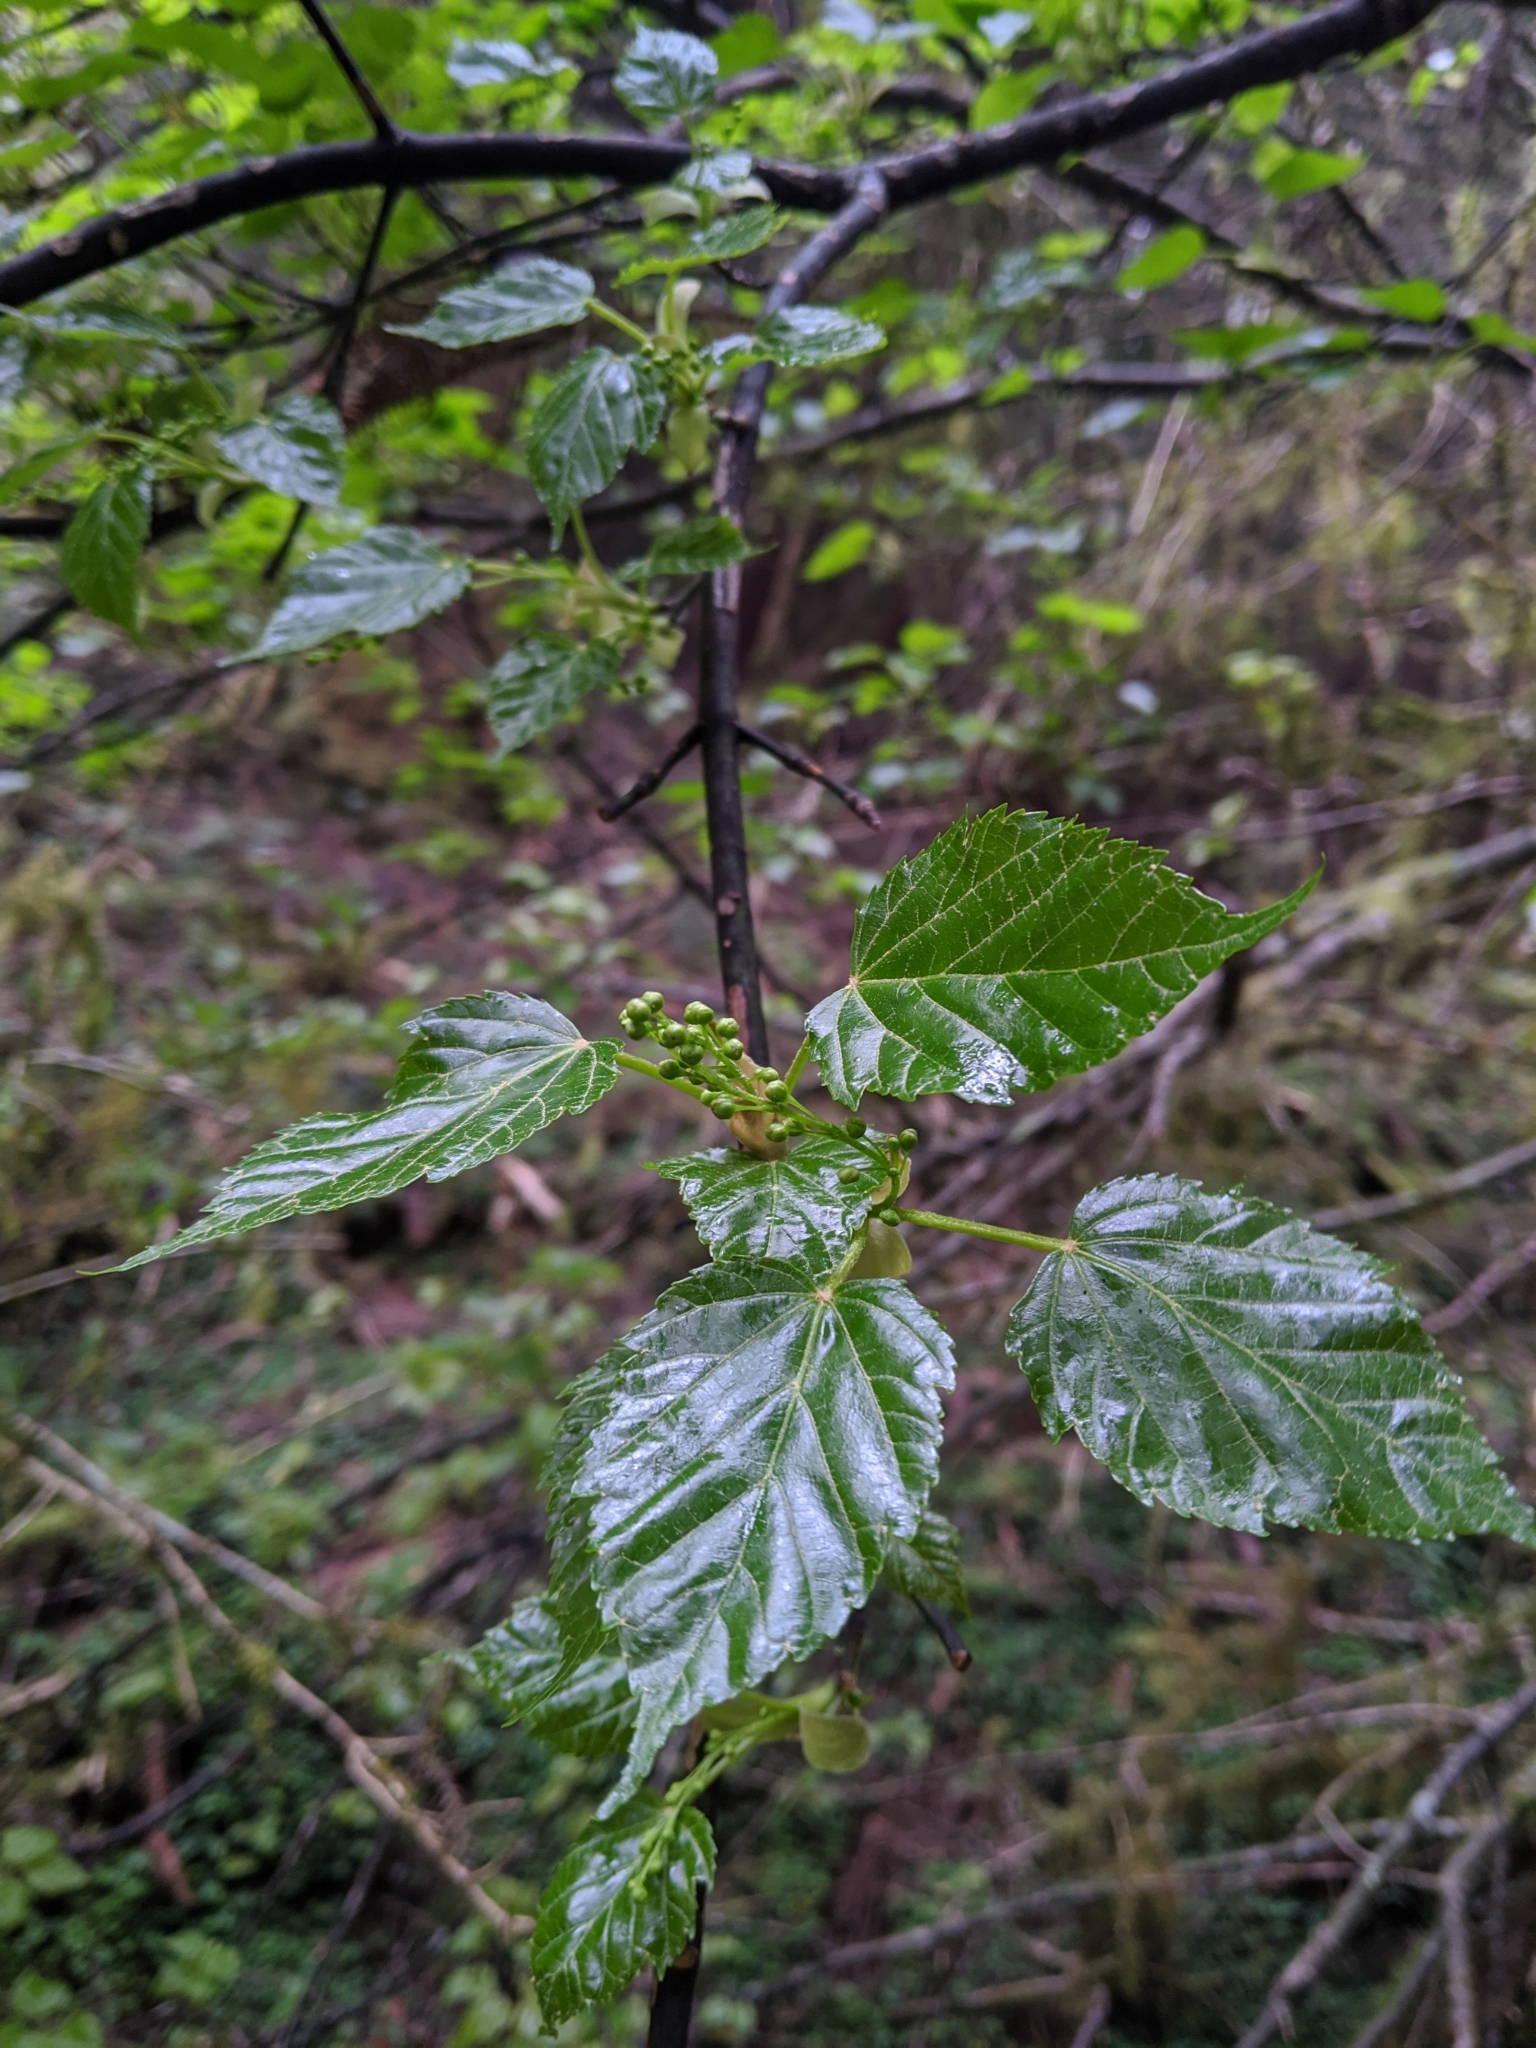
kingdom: Plantae
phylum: Tracheophyta
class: Magnoliopsida
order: Sapindales
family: Sapindaceae
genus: Acer
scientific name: Acer caudatifolium
